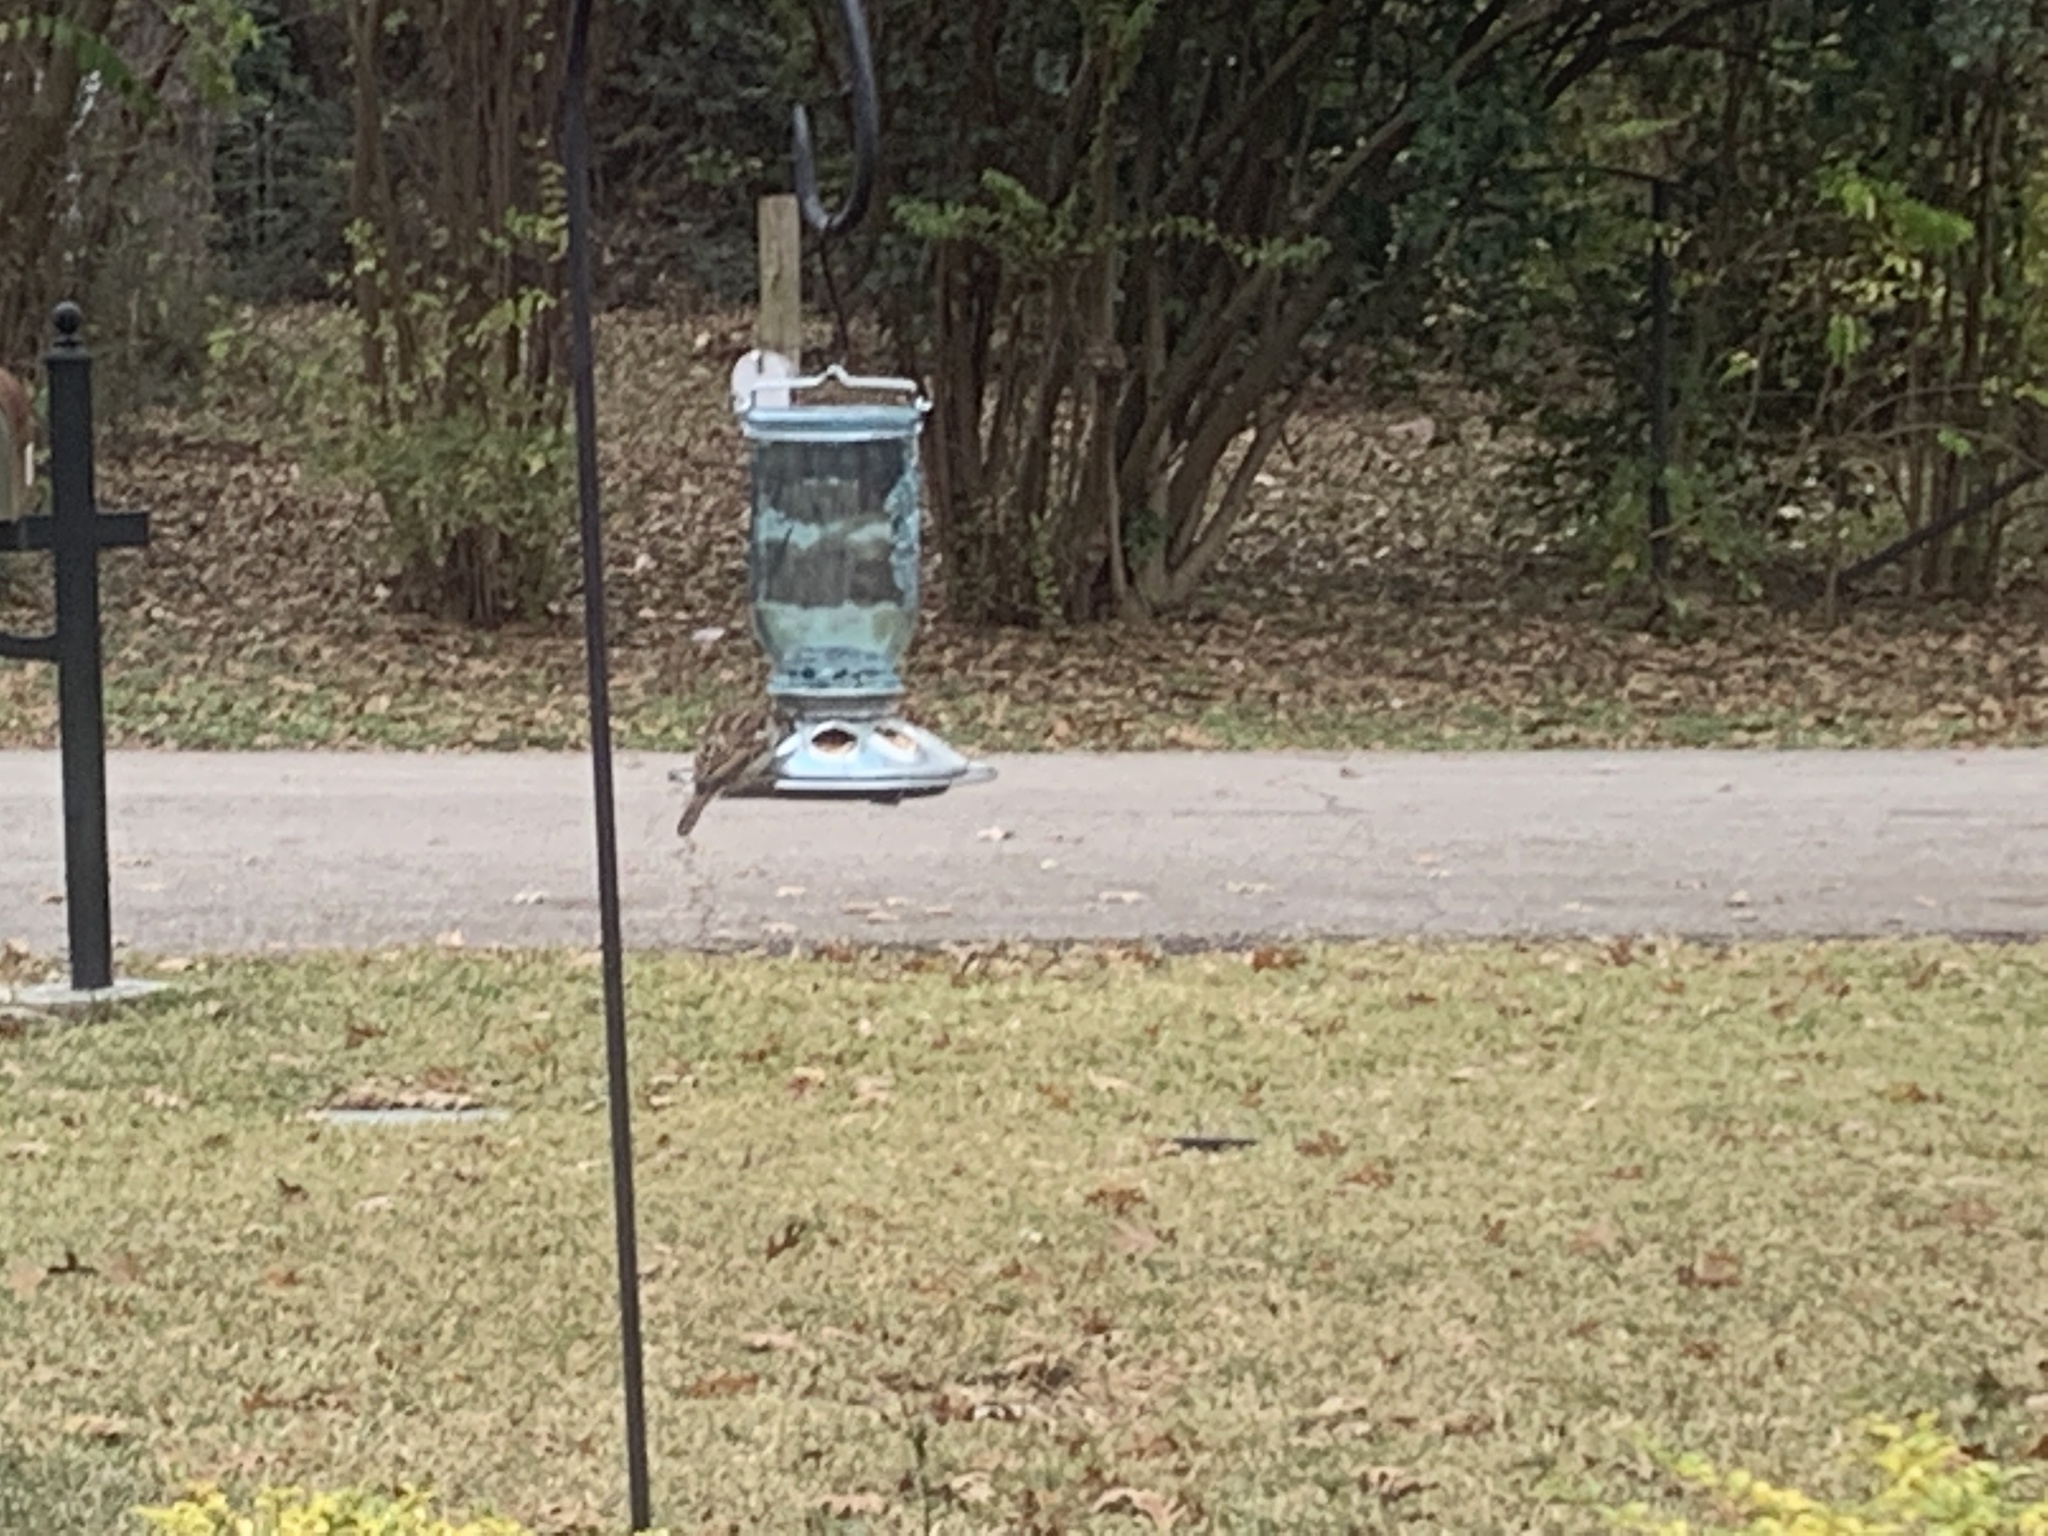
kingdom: Animalia
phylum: Chordata
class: Aves
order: Passeriformes
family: Passeridae
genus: Passer
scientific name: Passer domesticus
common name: House sparrow
